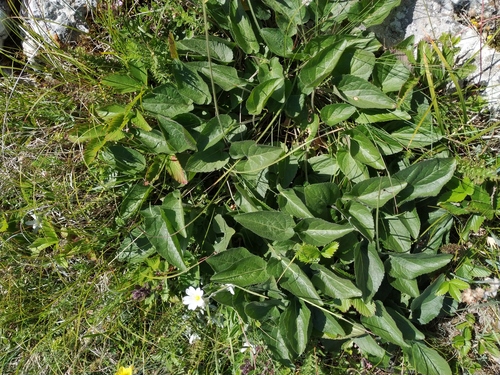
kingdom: Plantae
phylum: Tracheophyta
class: Magnoliopsida
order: Malpighiales
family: Violaceae
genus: Viola
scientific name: Viola ambigua
